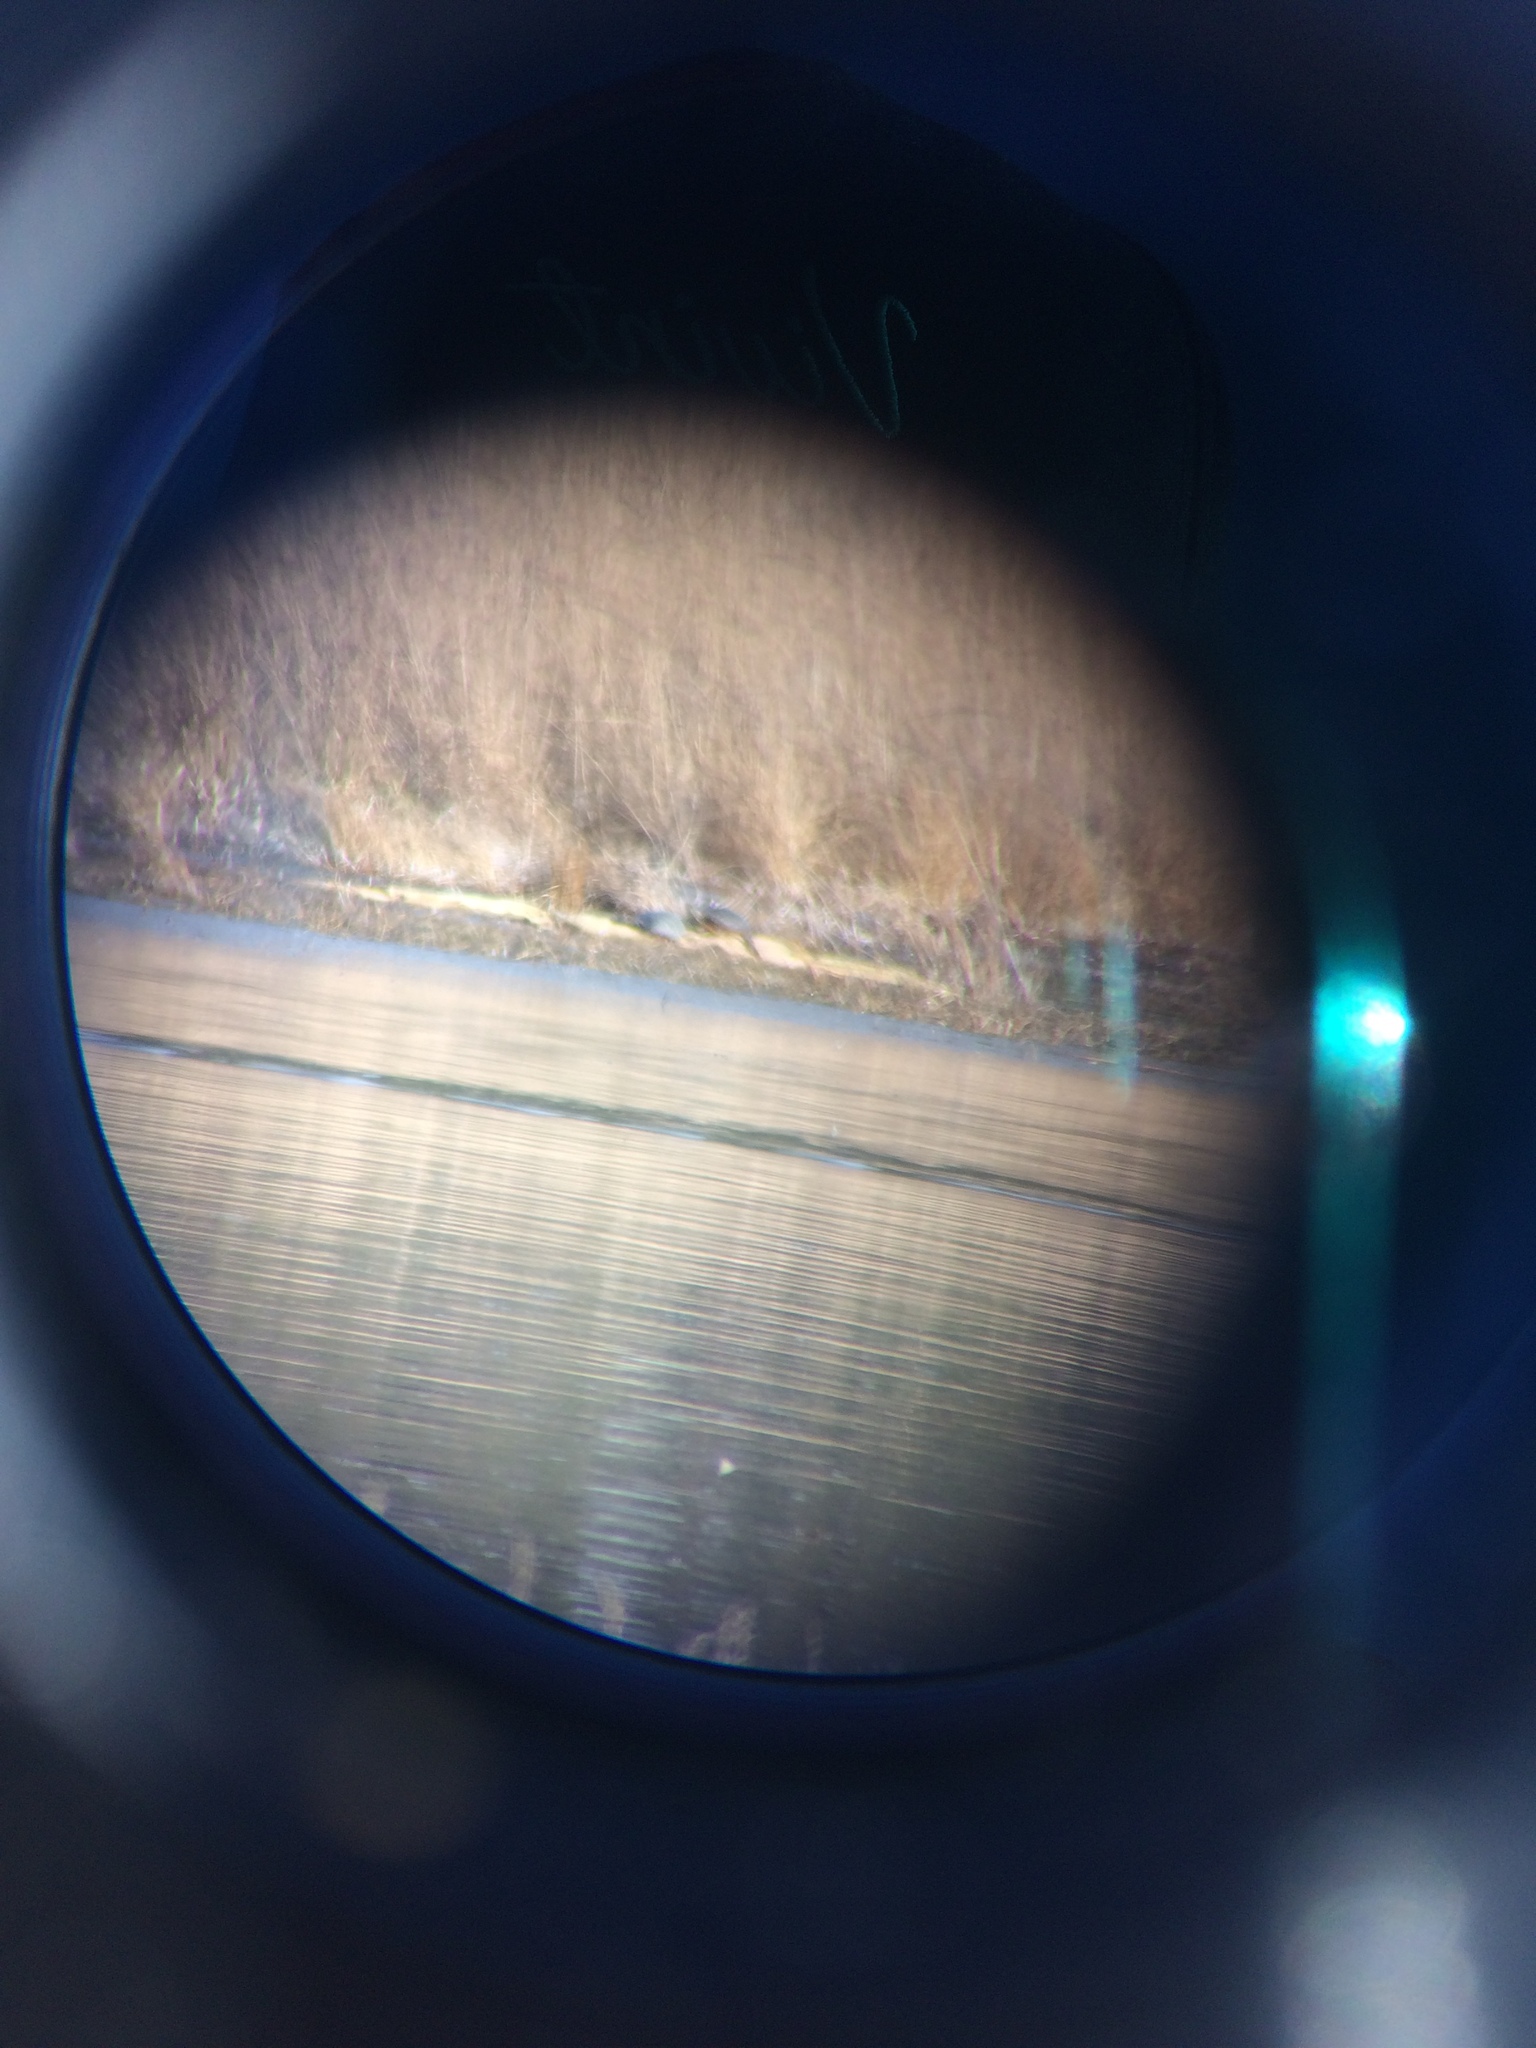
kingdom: Animalia
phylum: Chordata
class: Testudines
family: Emydidae
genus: Chrysemys
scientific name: Chrysemys picta
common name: Painted turtle
